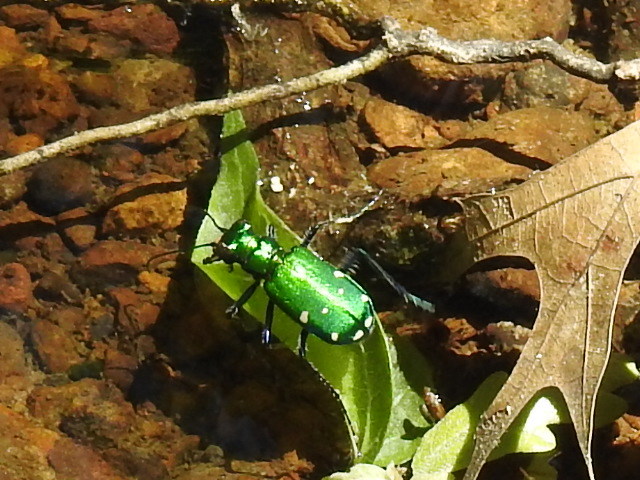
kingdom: Animalia
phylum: Arthropoda
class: Insecta
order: Coleoptera
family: Carabidae
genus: Cicindela
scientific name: Cicindela sexguttata
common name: Six-spotted tiger beetle
